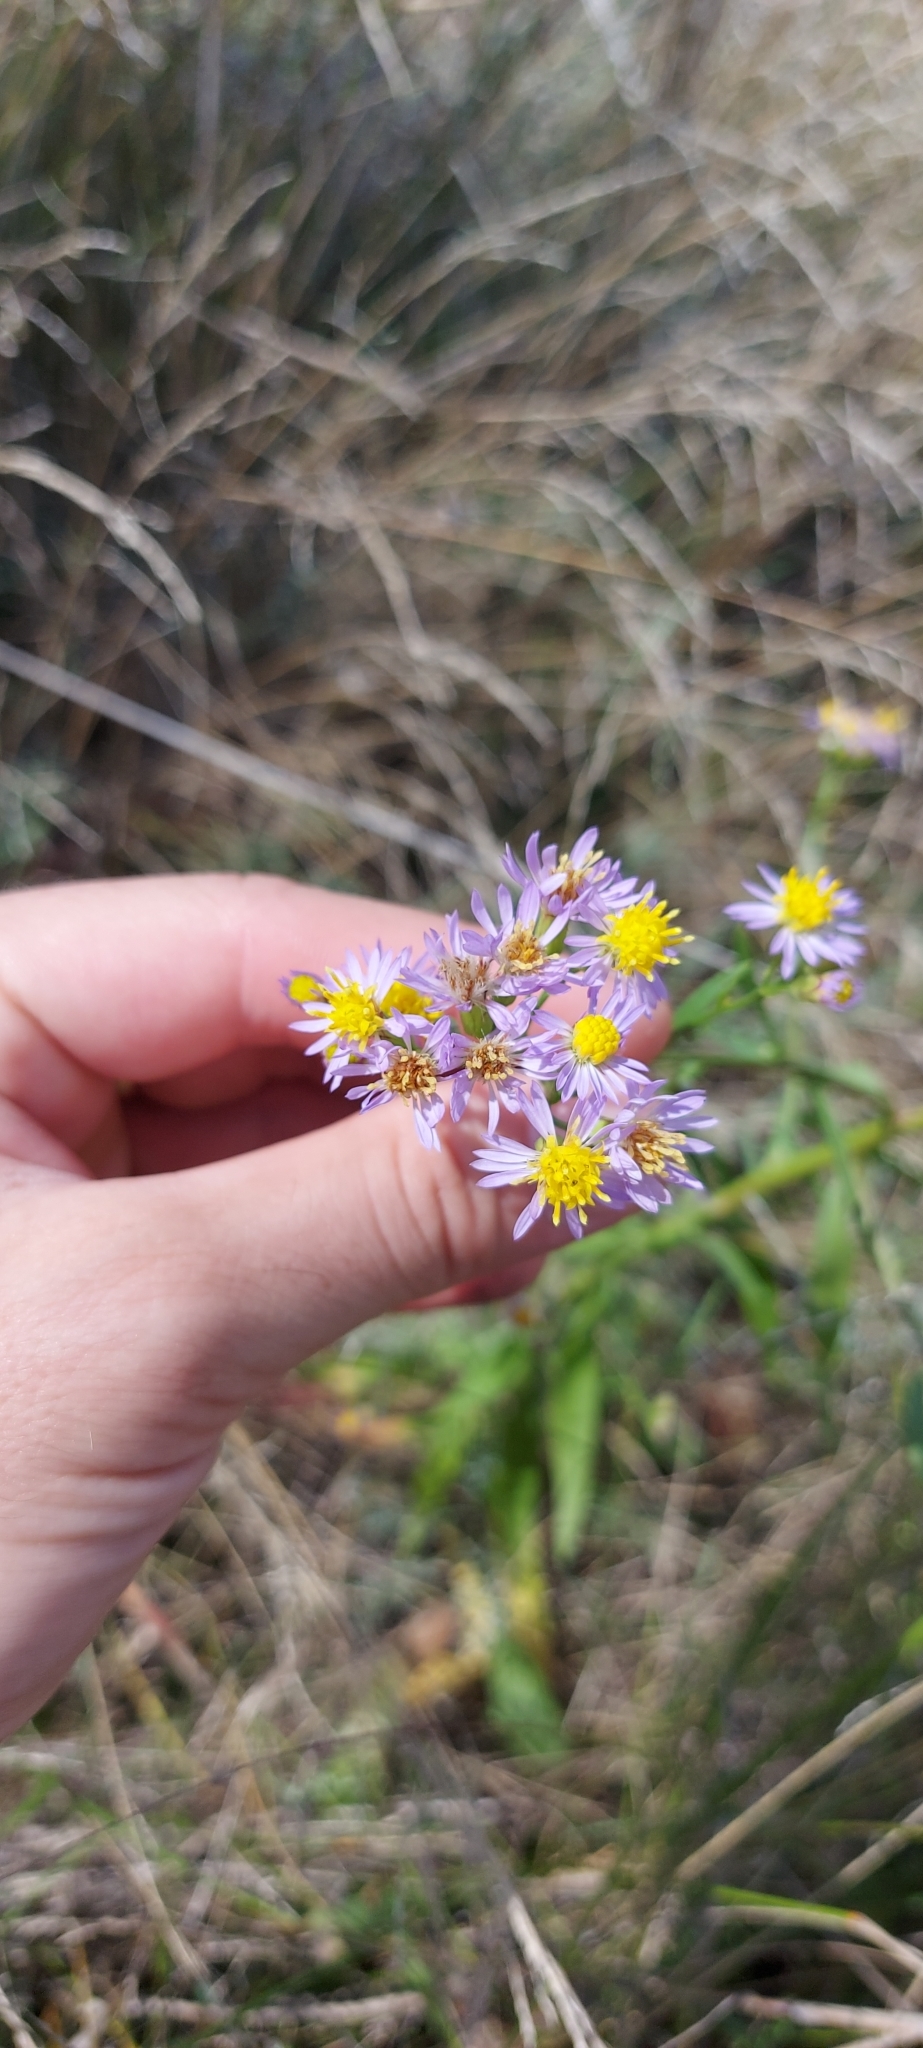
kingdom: Plantae
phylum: Tracheophyta
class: Magnoliopsida
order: Asterales
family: Asteraceae
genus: Tripolium
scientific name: Tripolium pannonicum
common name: Sea aster
